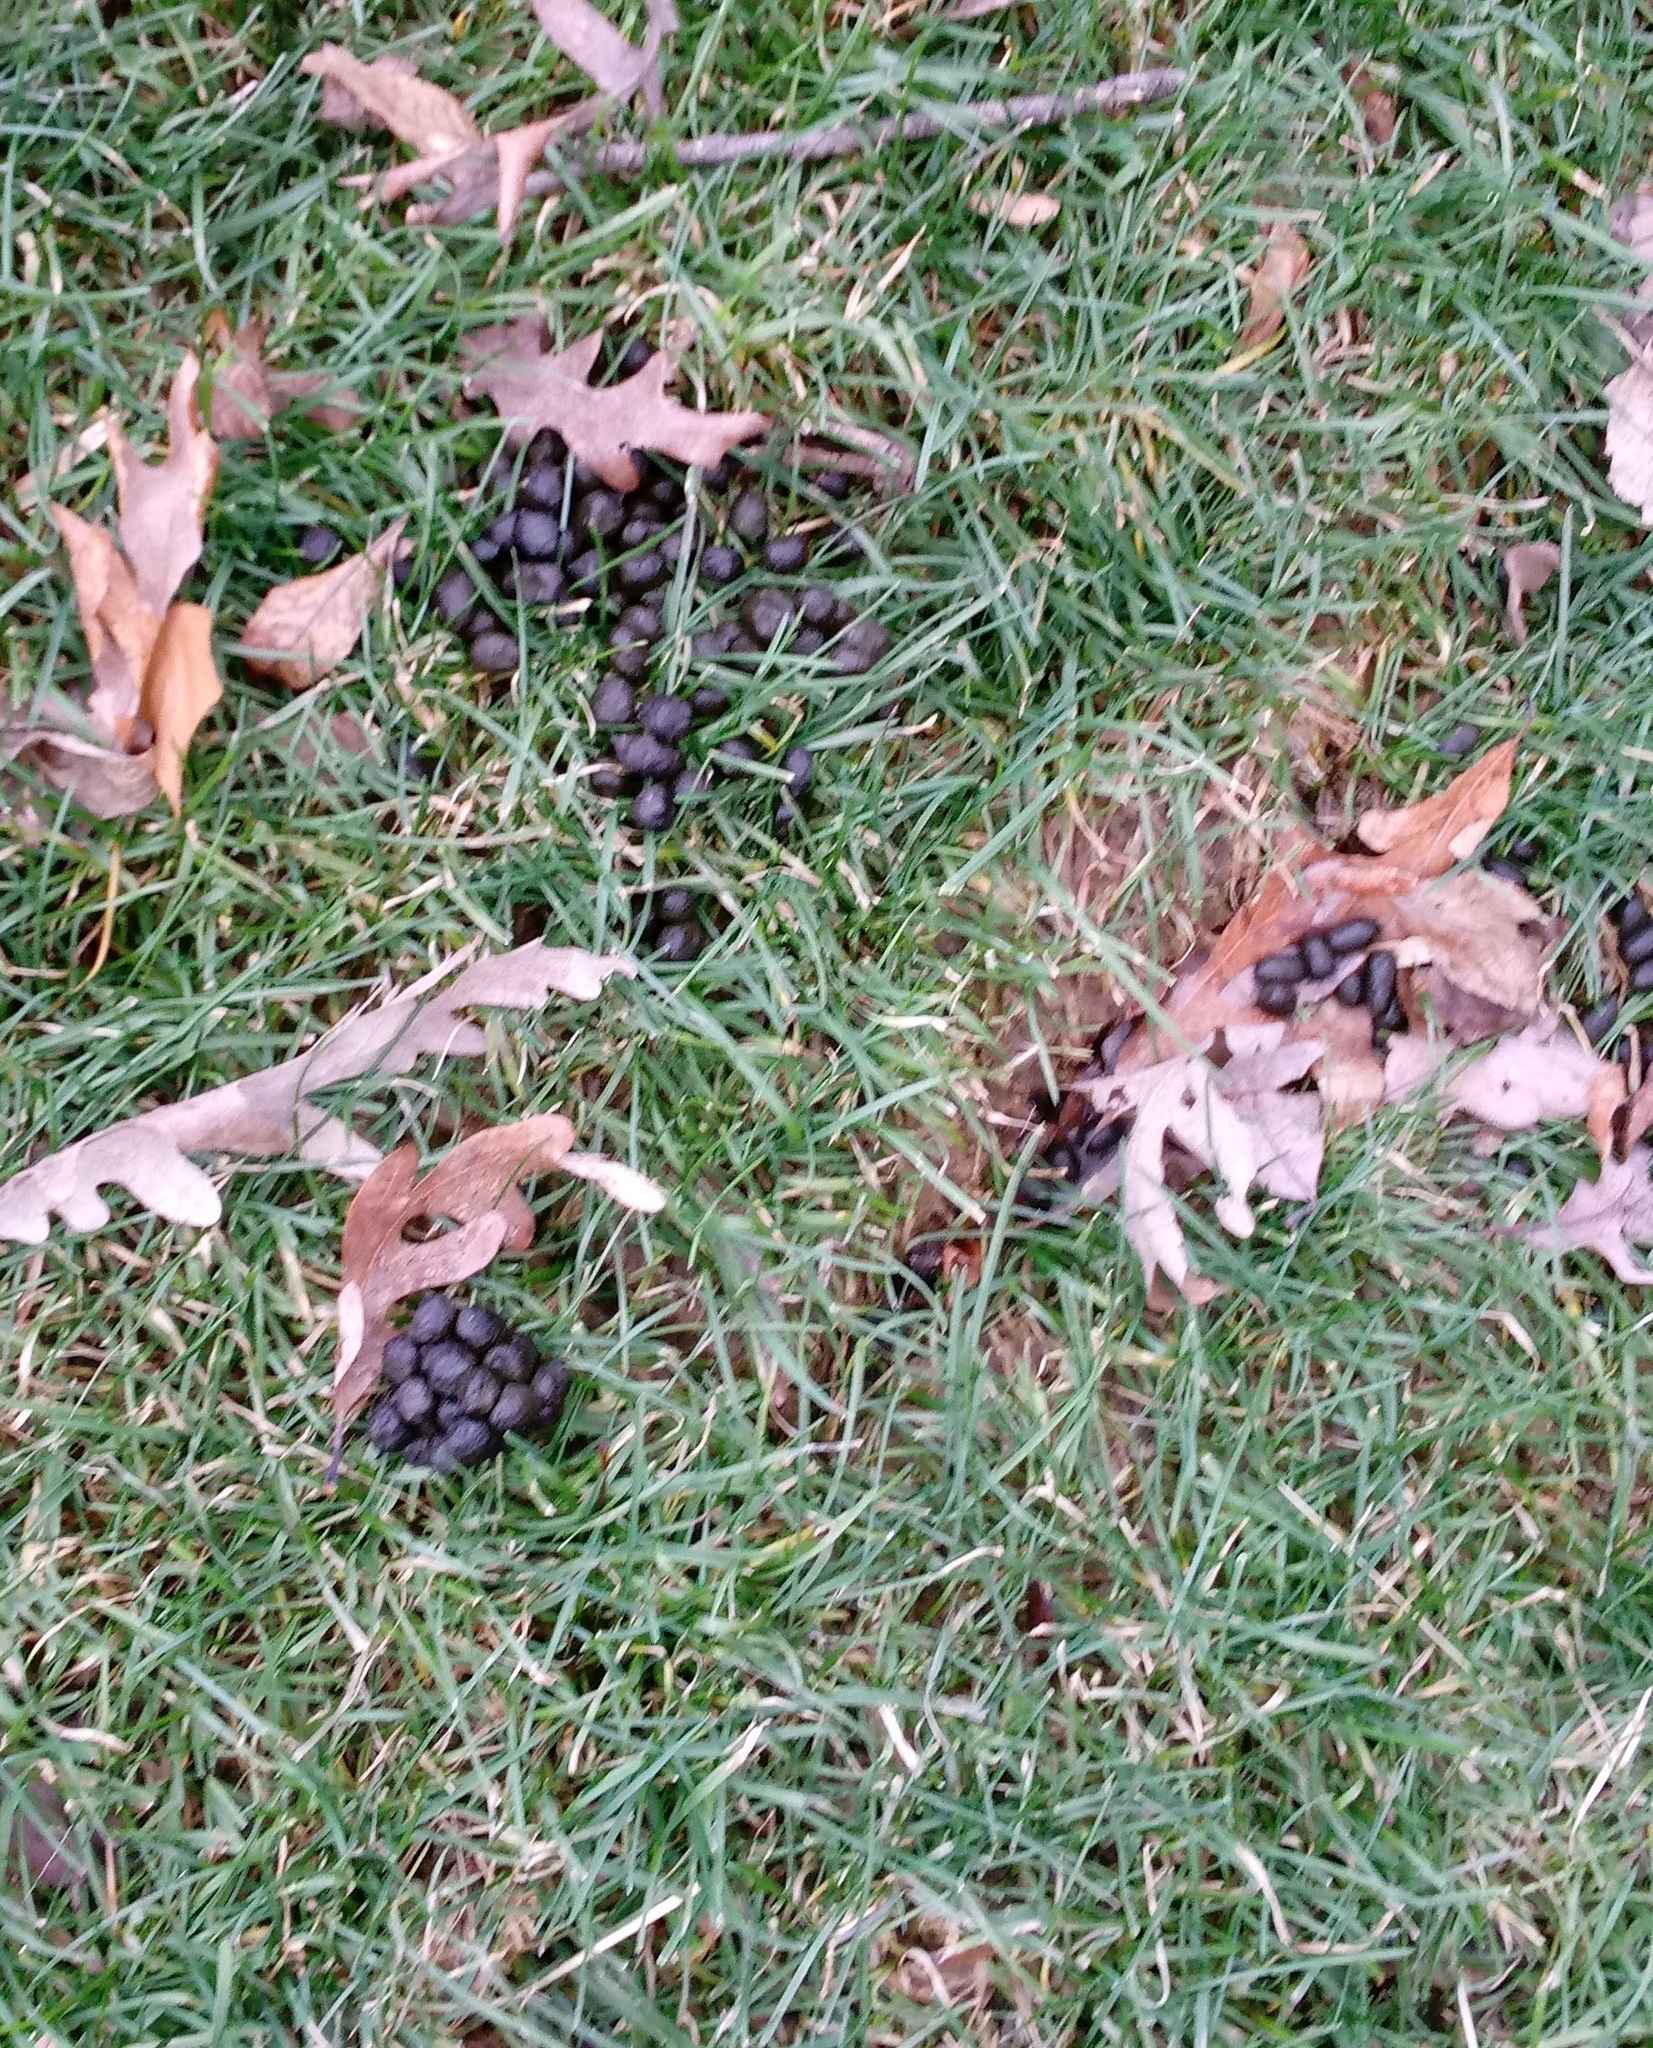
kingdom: Animalia
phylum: Chordata
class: Mammalia
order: Artiodactyla
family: Cervidae
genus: Odocoileus
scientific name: Odocoileus virginianus
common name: White-tailed deer
